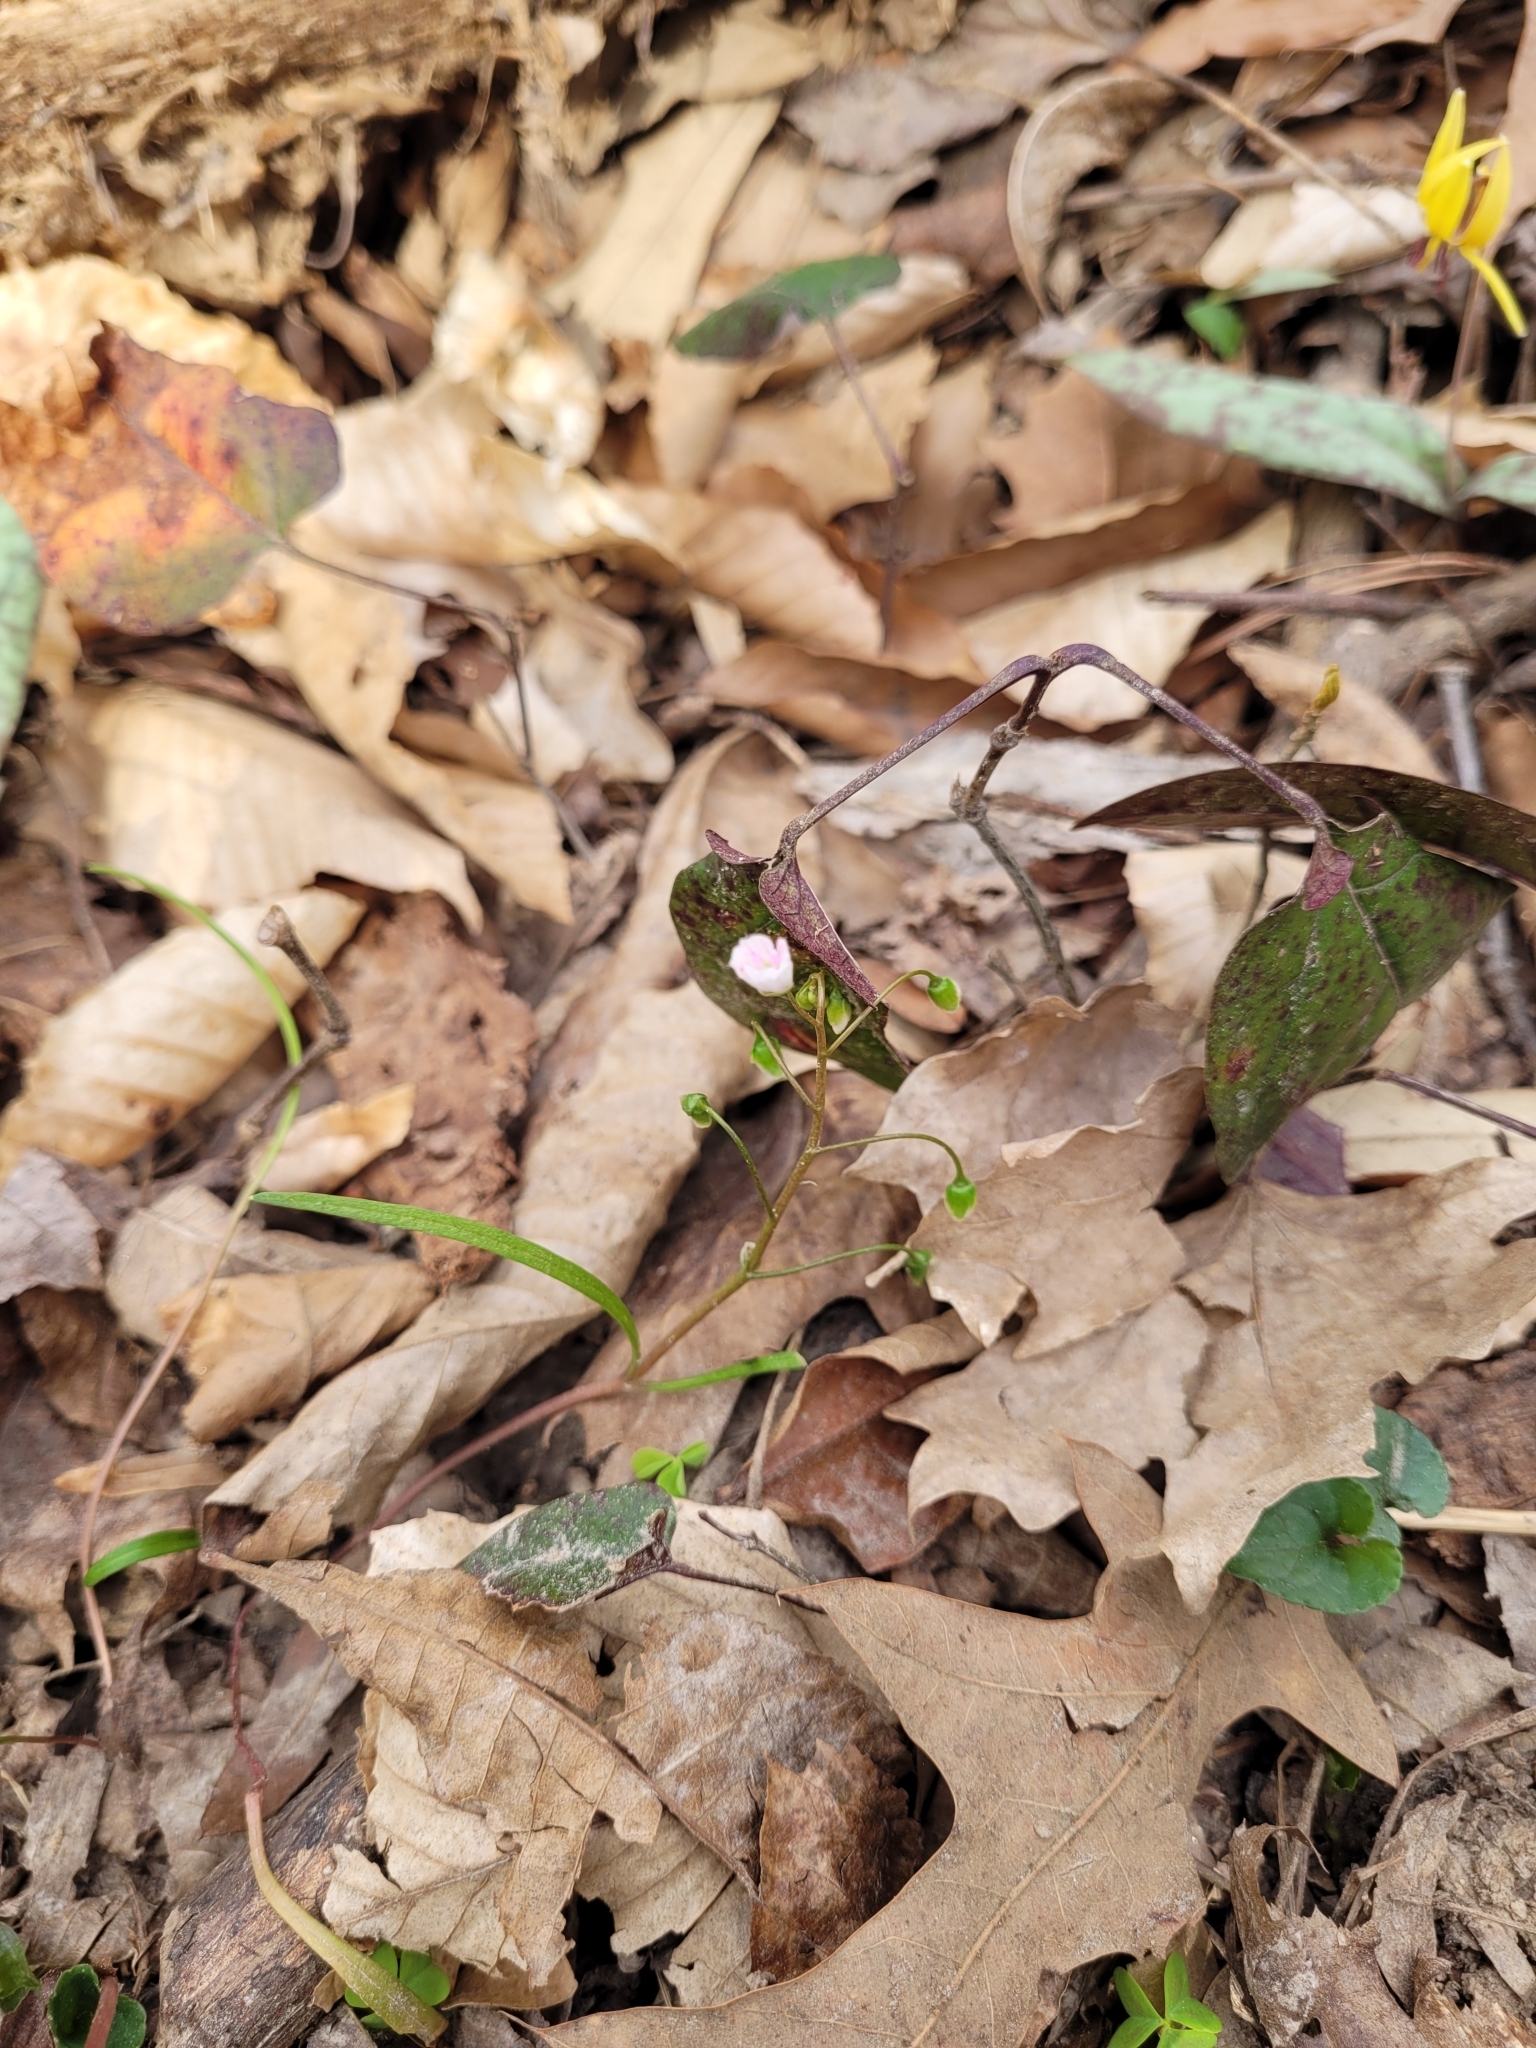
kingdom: Plantae
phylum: Tracheophyta
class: Magnoliopsida
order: Caryophyllales
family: Montiaceae
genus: Claytonia
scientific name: Claytonia virginica
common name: Virginia springbeauty
